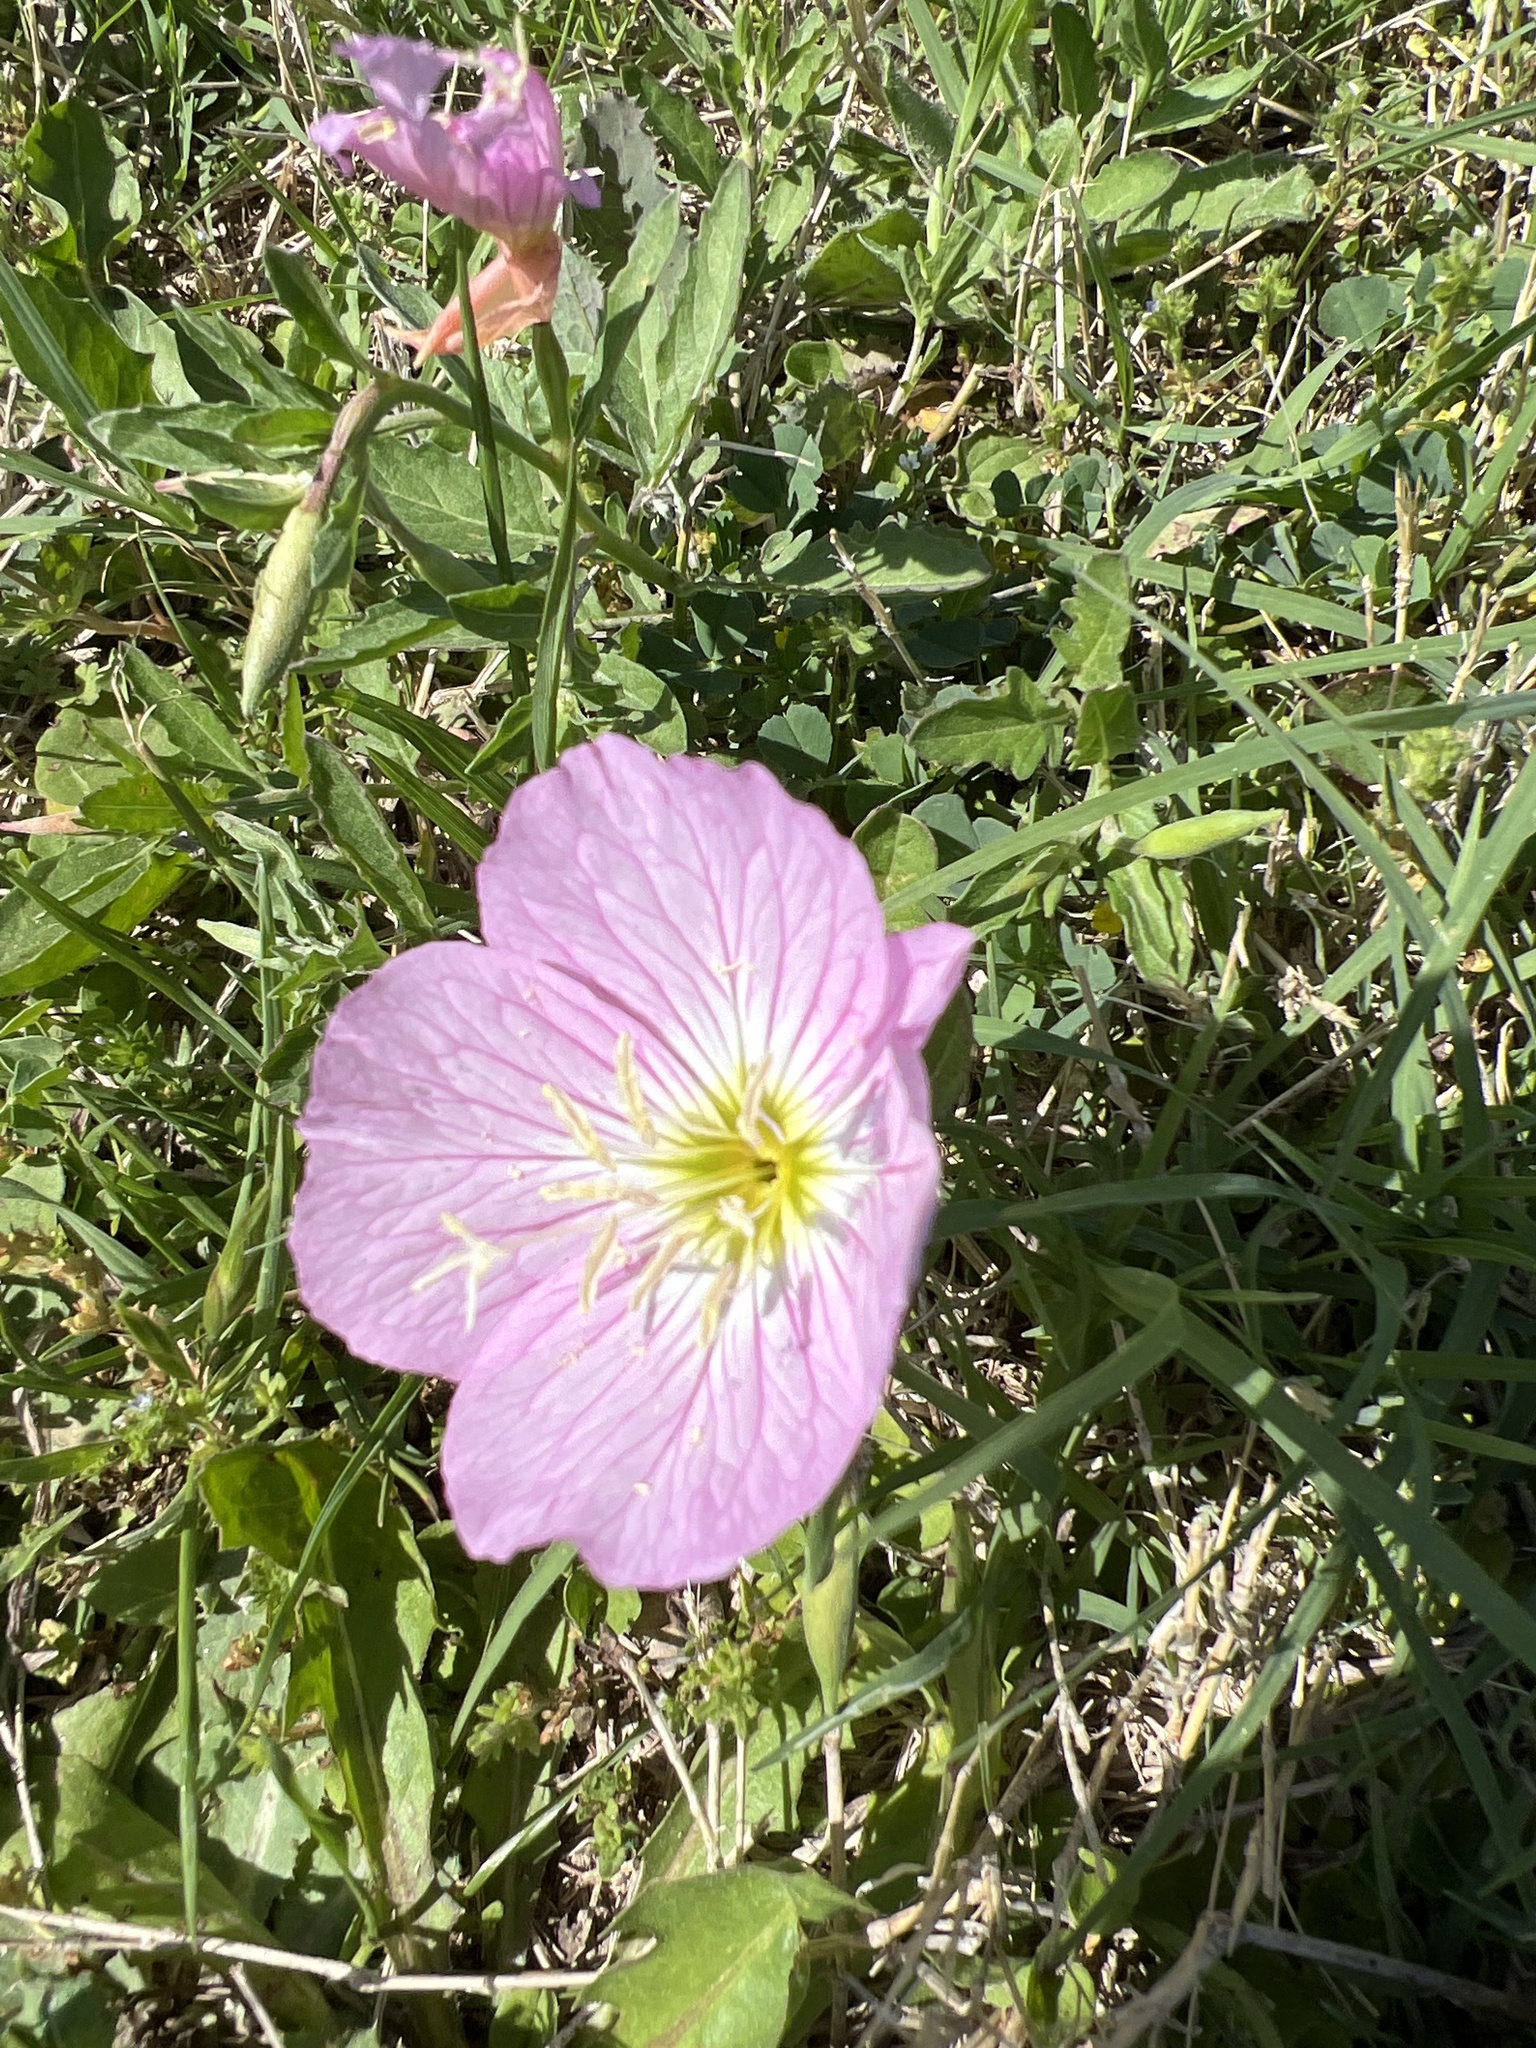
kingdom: Plantae
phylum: Tracheophyta
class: Magnoliopsida
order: Myrtales
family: Onagraceae
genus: Oenothera
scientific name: Oenothera speciosa
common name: White evening-primrose
